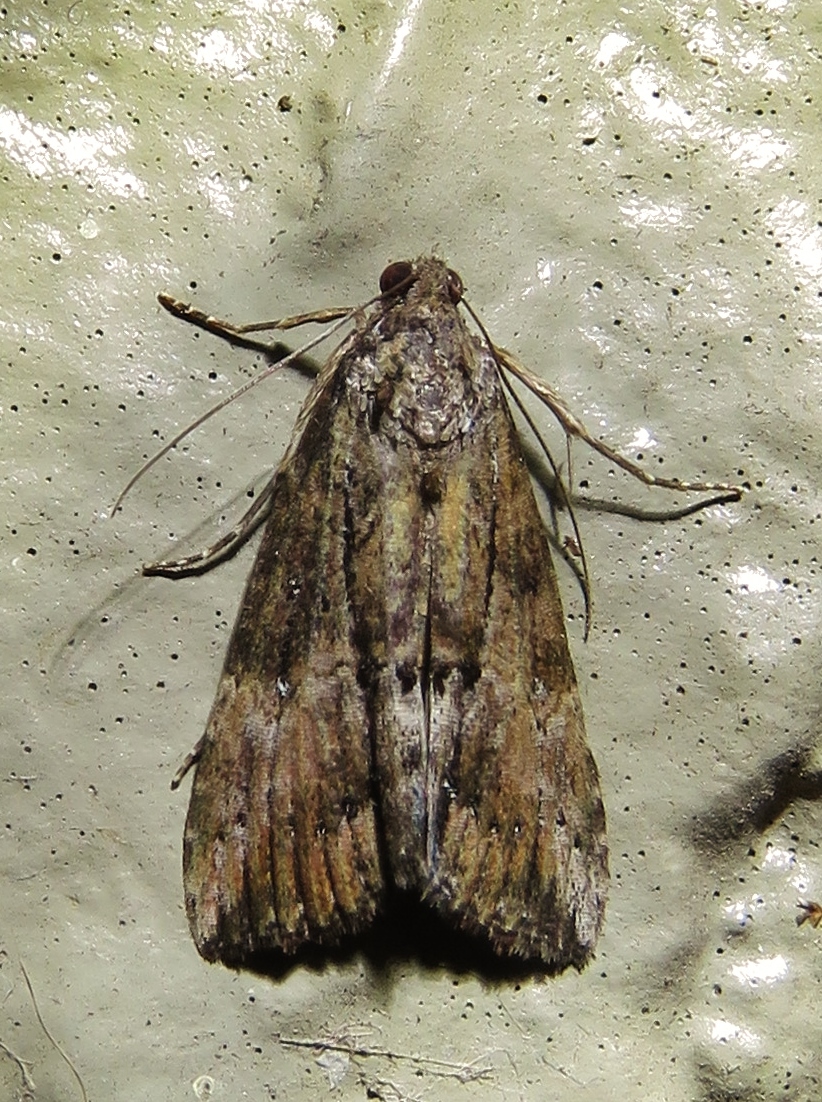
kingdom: Animalia
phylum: Arthropoda
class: Insecta
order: Lepidoptera
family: Erebidae
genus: Hypena
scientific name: Hypena scabra
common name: Green cloverworm
